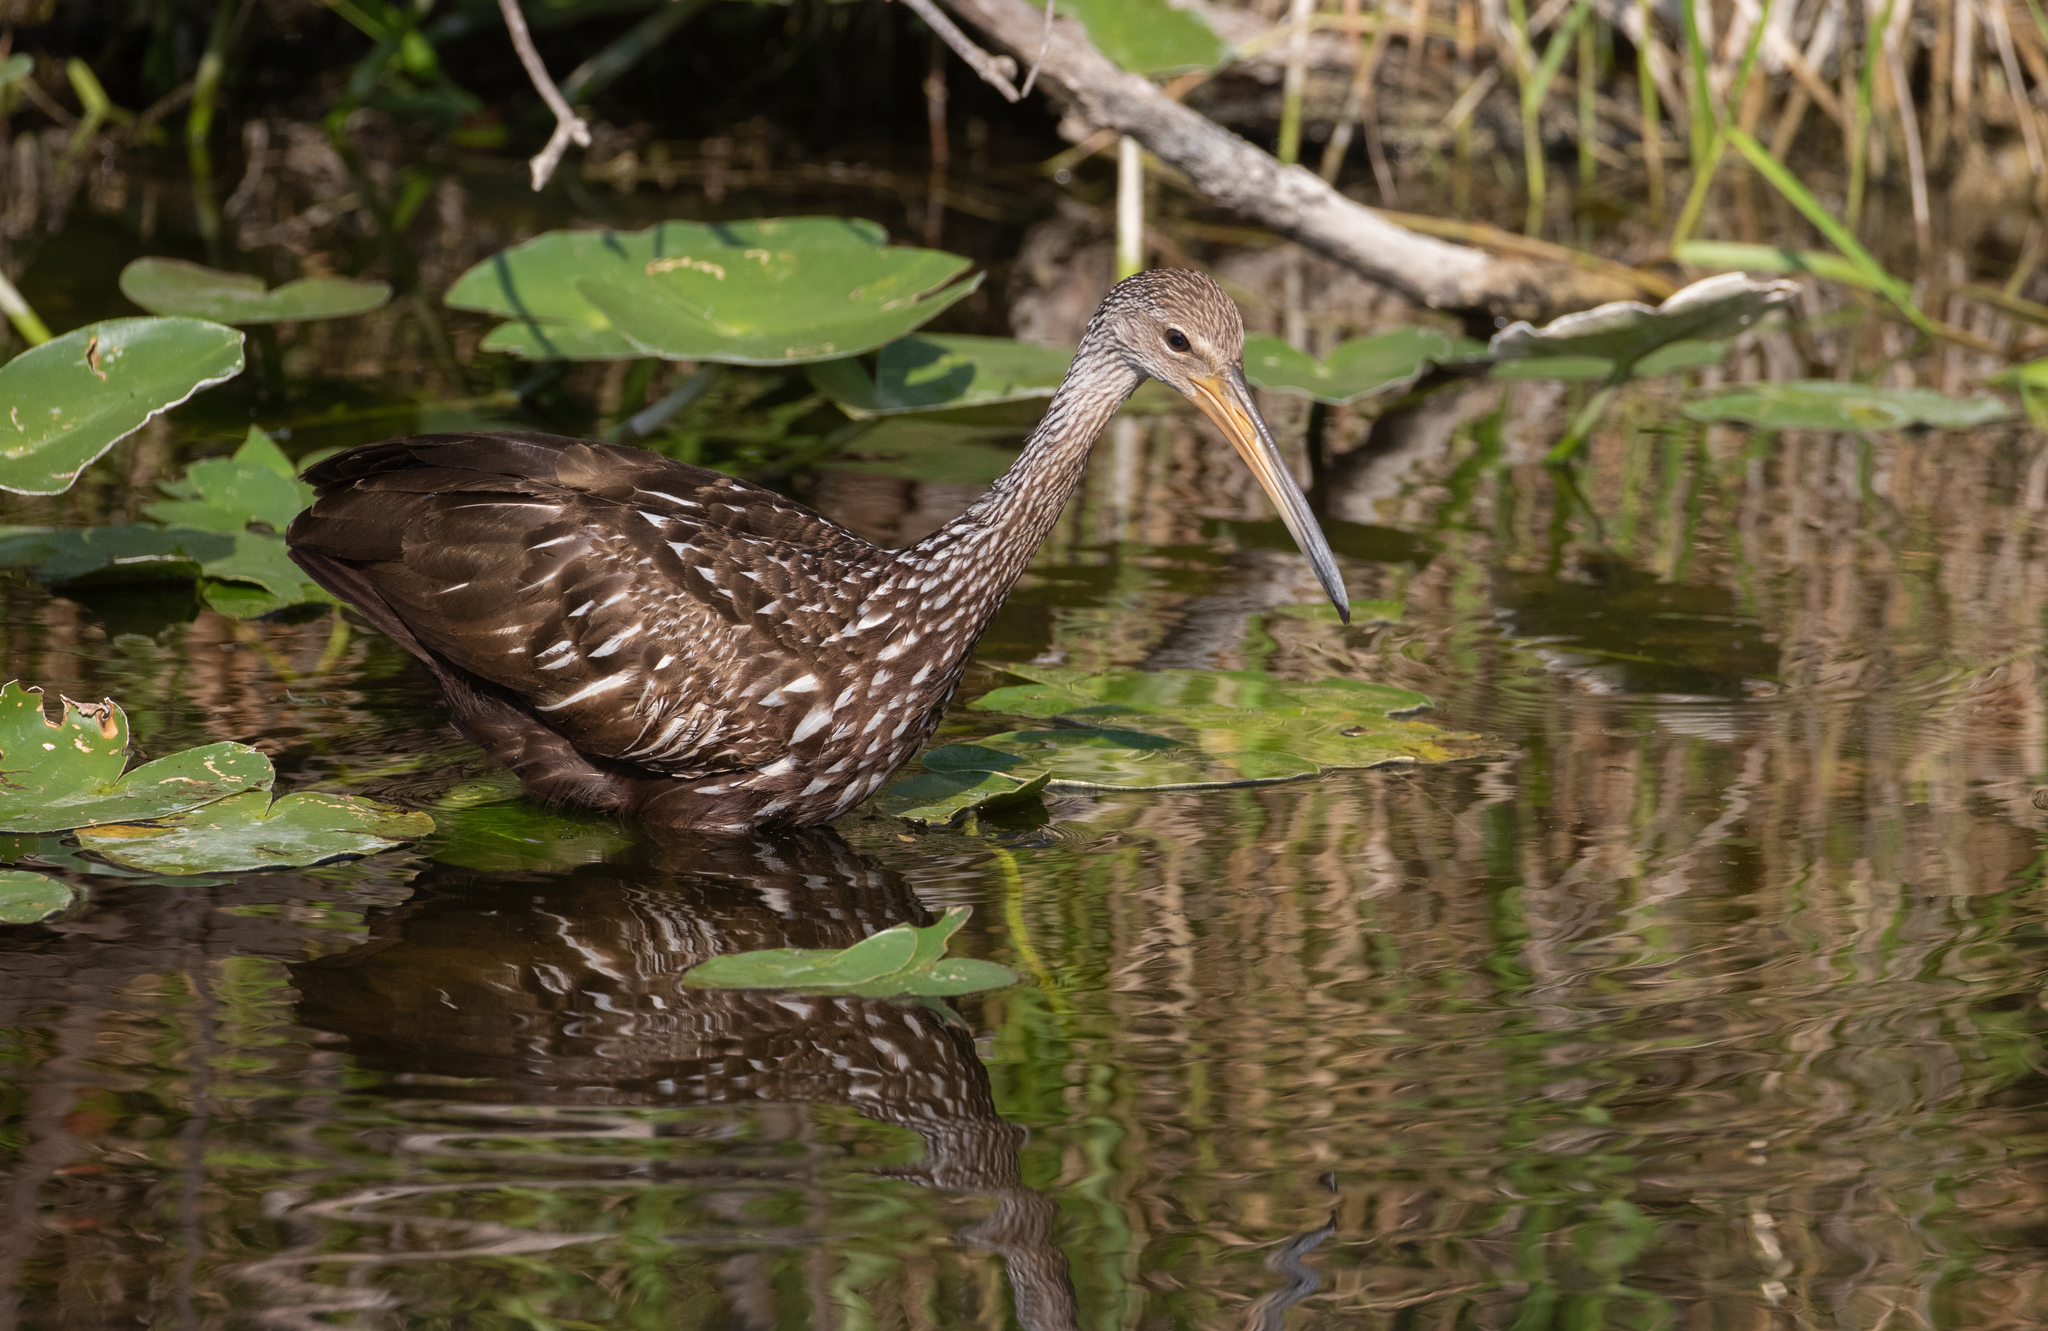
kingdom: Animalia
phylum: Chordata
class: Aves
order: Gruiformes
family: Aramidae
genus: Aramus
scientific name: Aramus guarauna
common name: Limpkin
